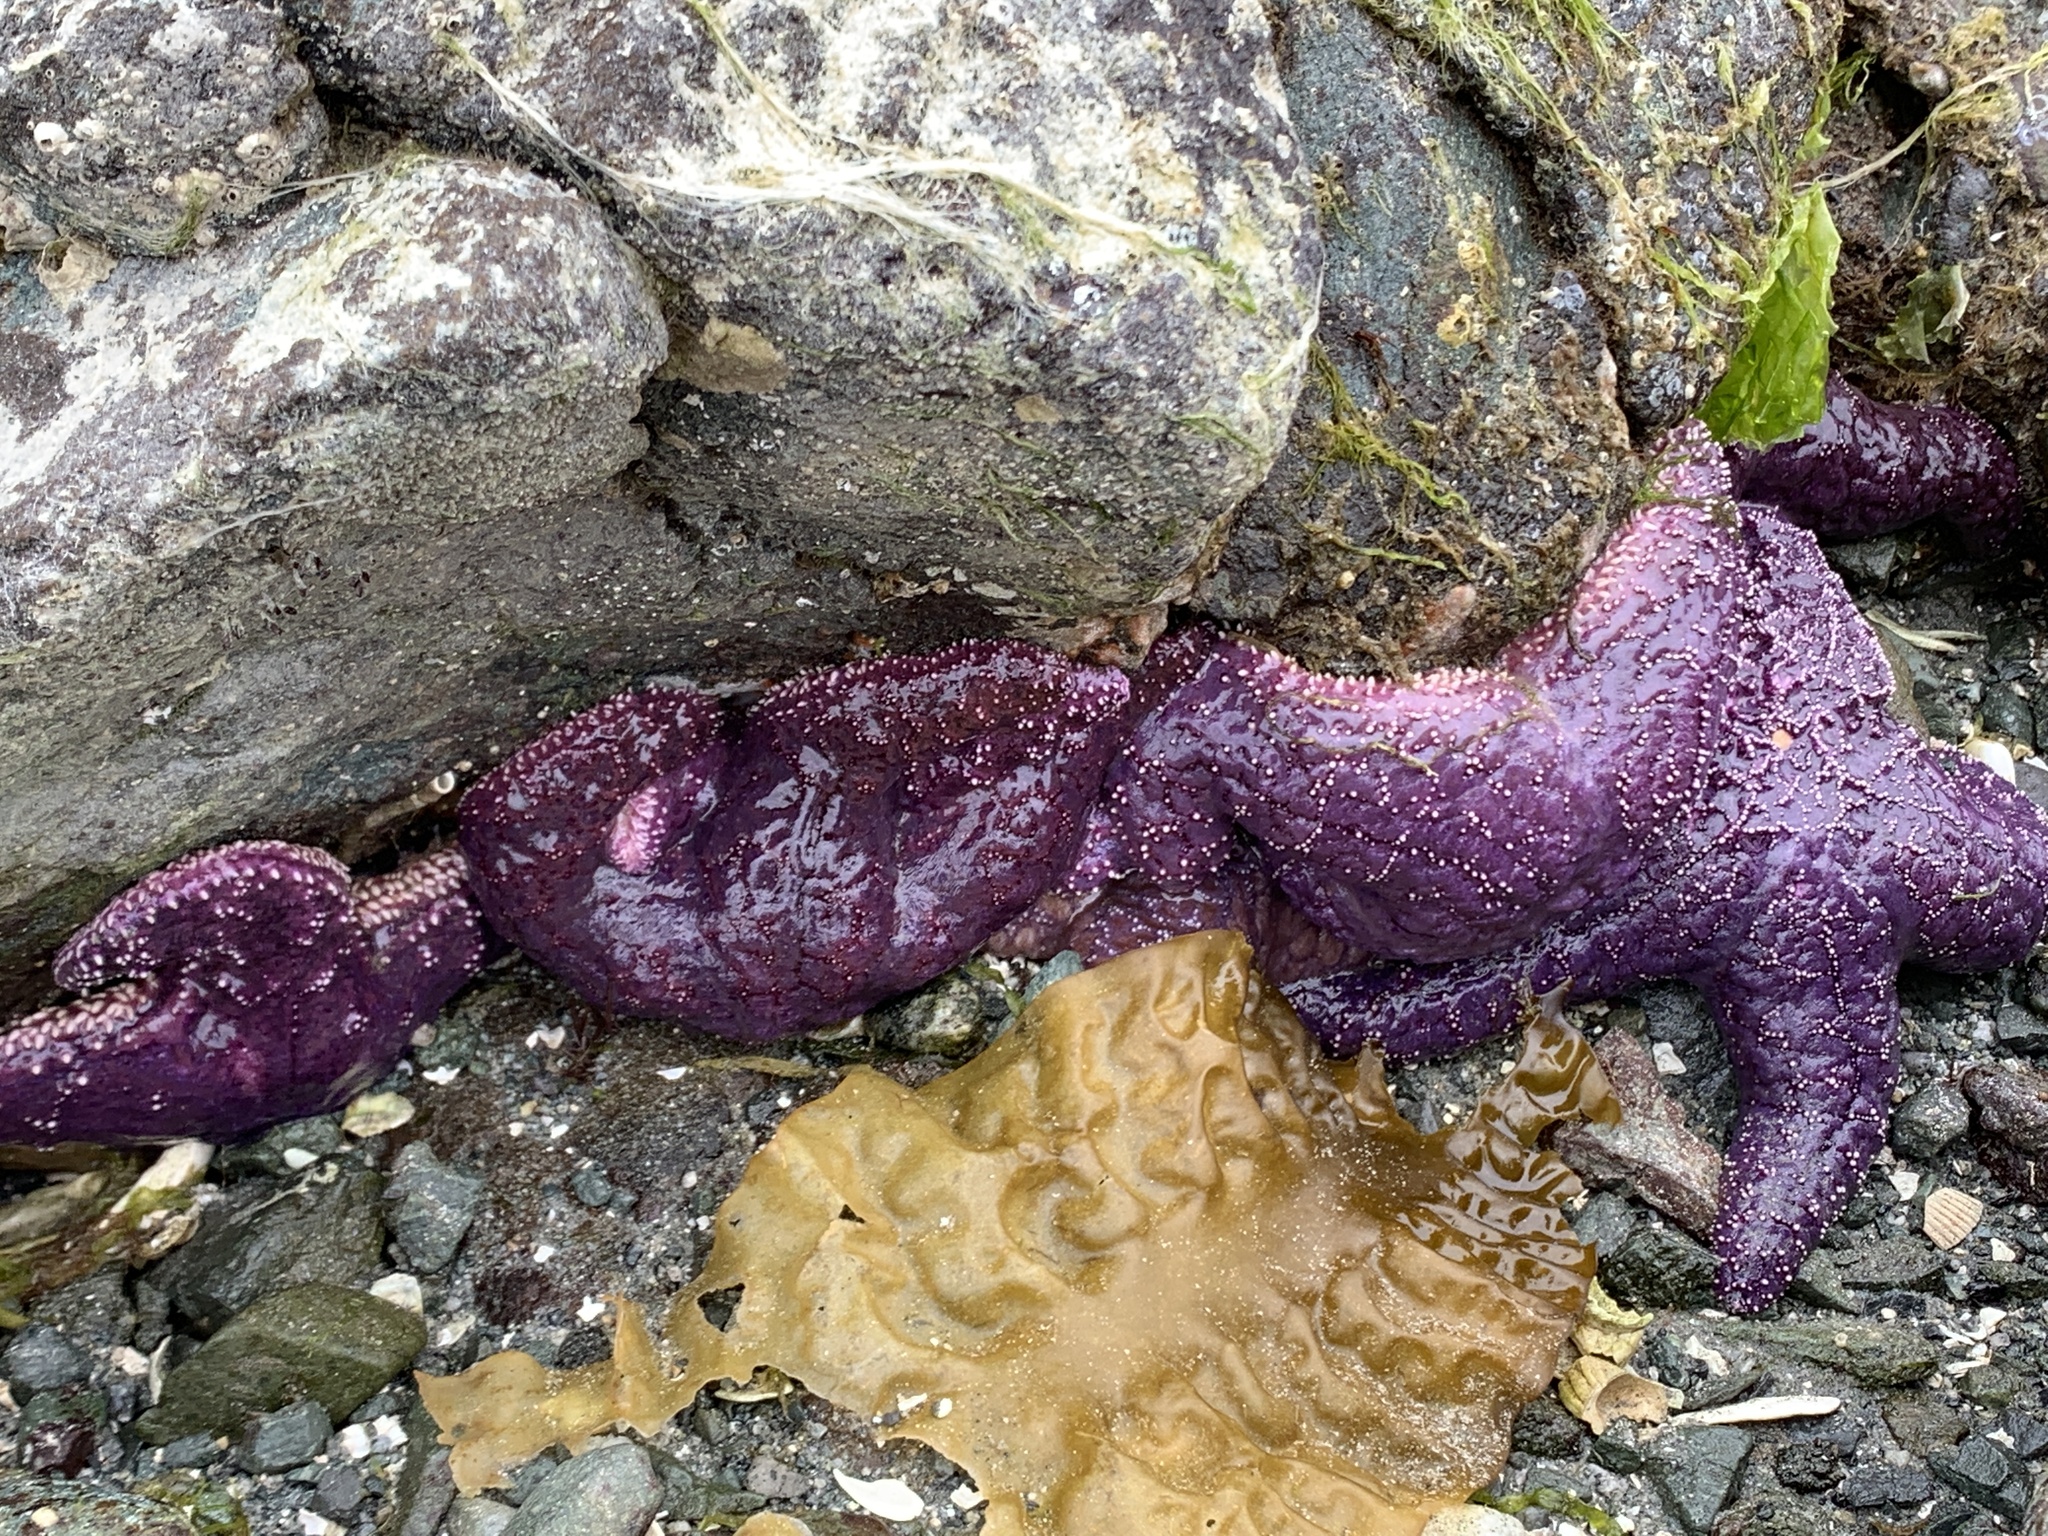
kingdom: Animalia
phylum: Echinodermata
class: Asteroidea
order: Forcipulatida
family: Asteriidae
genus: Pisaster
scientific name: Pisaster ochraceus
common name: Ochre stars
